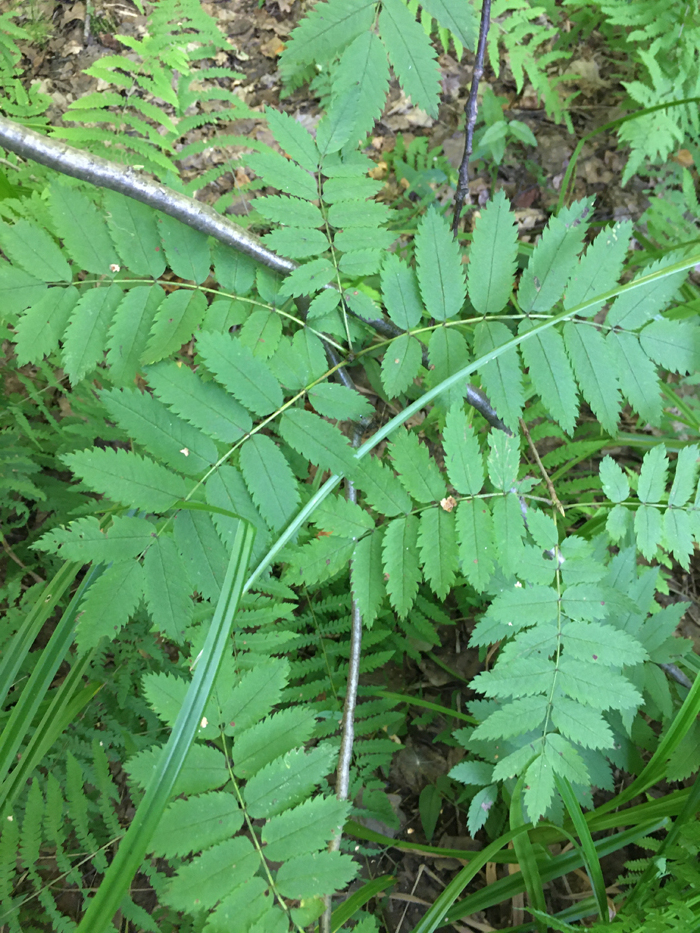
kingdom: Plantae
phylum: Tracheophyta
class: Magnoliopsida
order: Rosales
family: Rosaceae
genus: Sorbus
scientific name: Sorbus aucuparia
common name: Rowan
